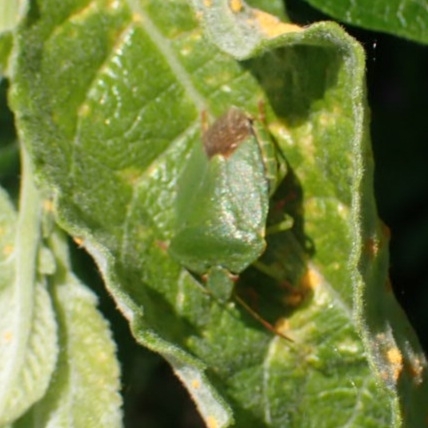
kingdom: Animalia
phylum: Arthropoda
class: Insecta
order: Hemiptera
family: Pentatomidae
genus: Palomena
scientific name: Palomena prasina
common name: Green shieldbug
